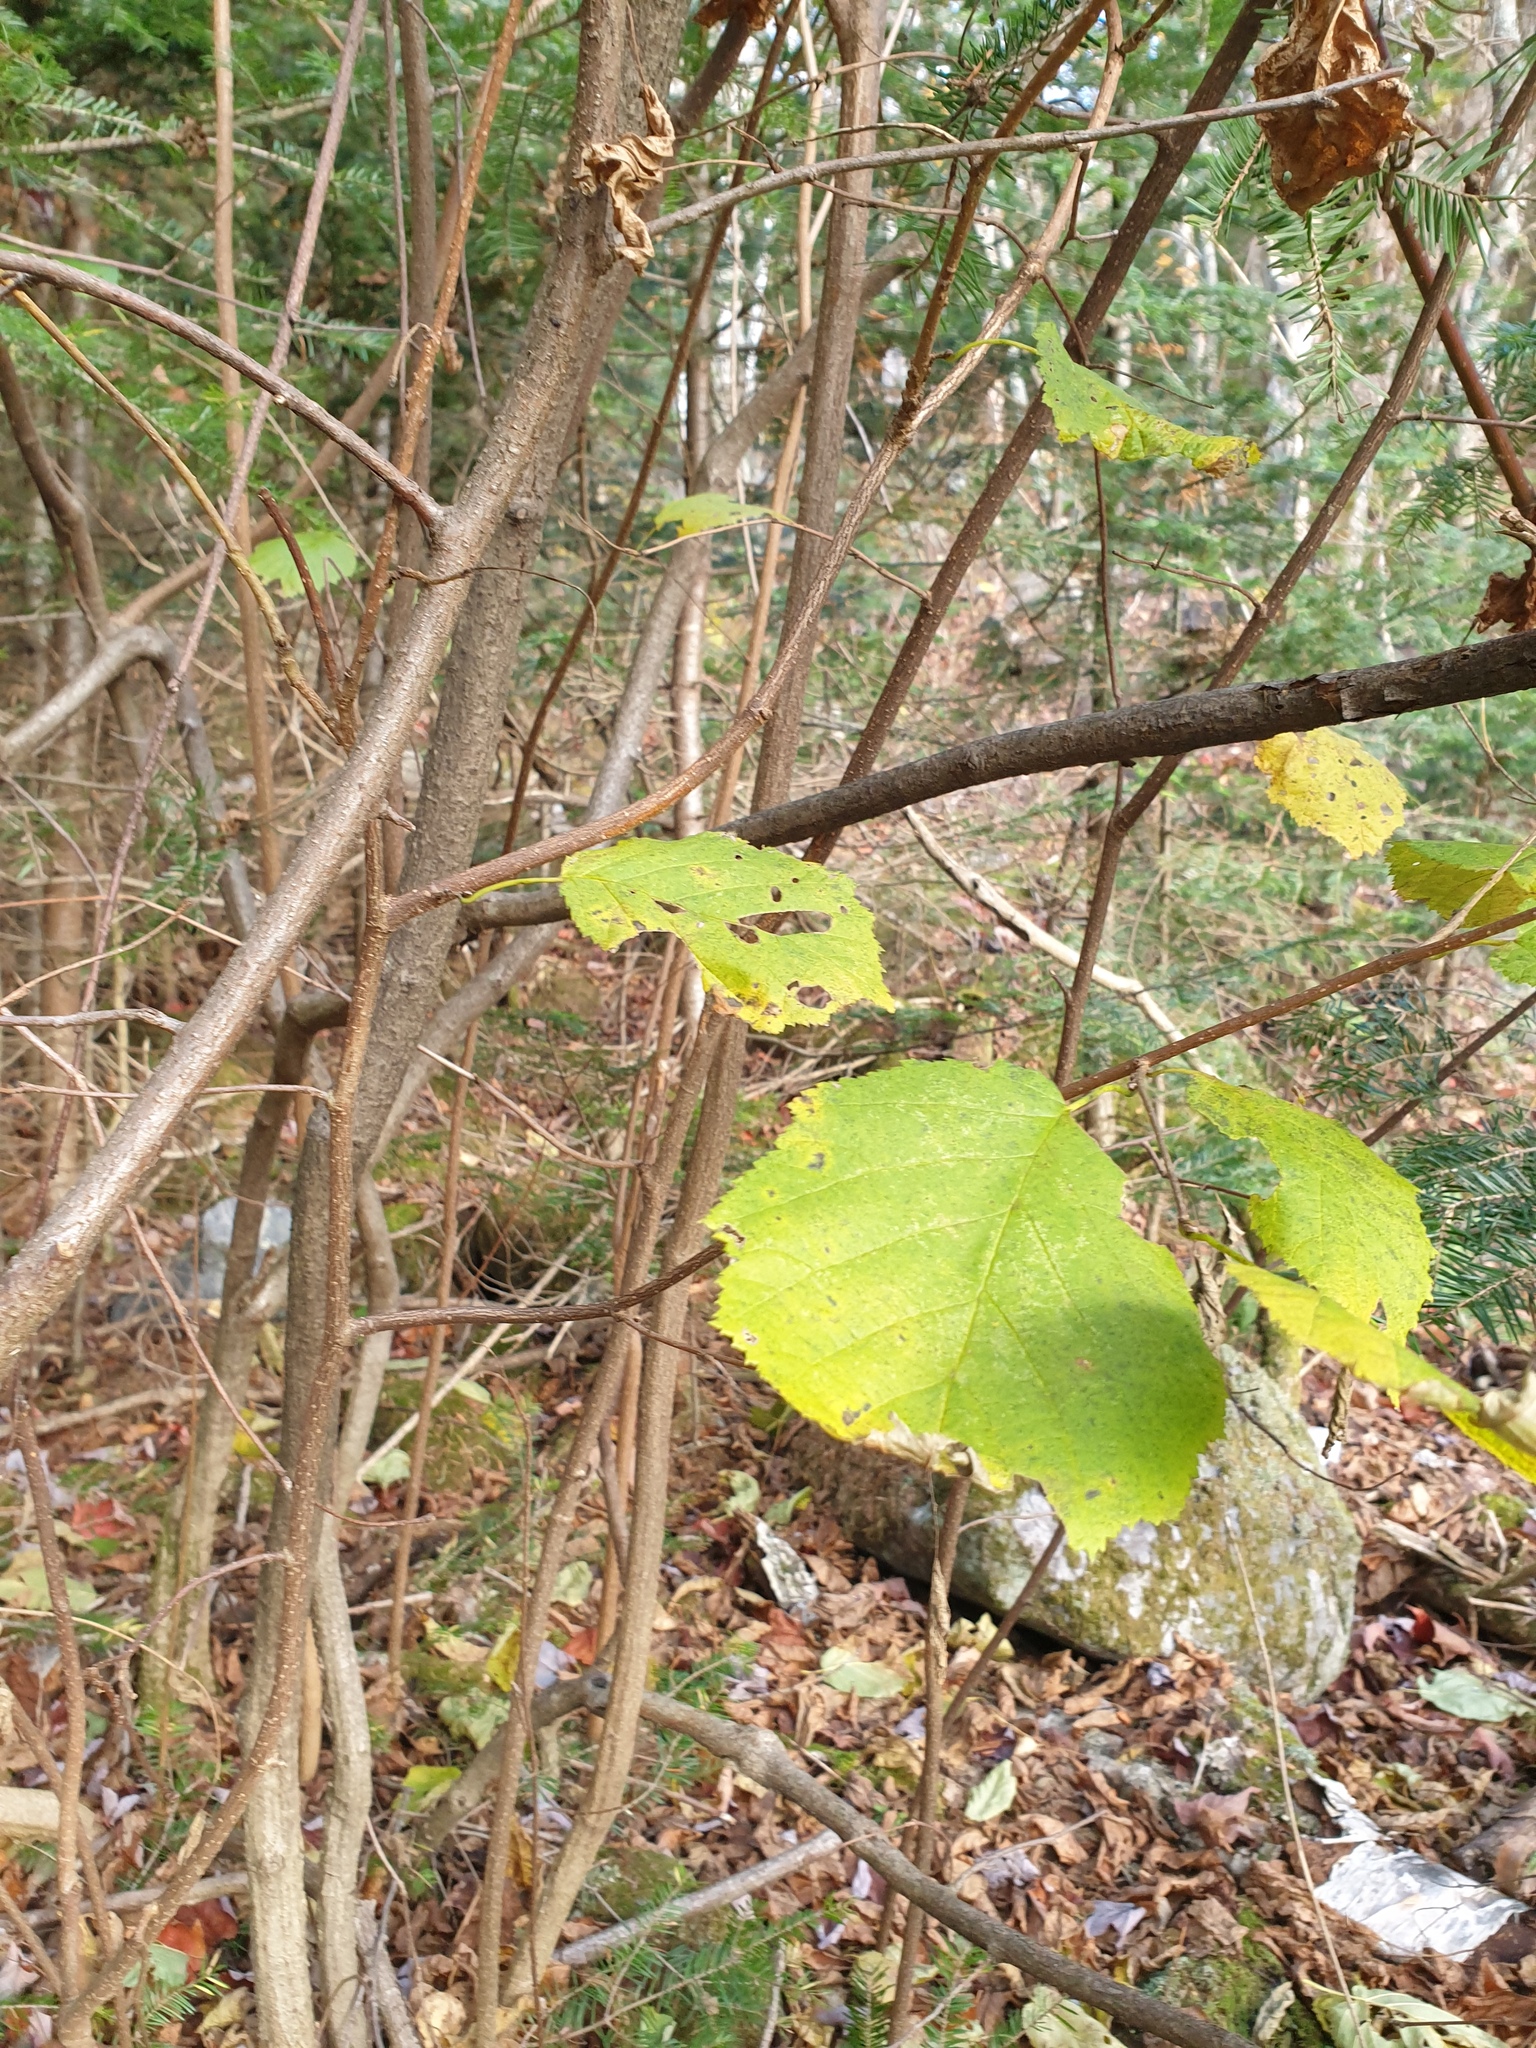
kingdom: Plantae
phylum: Tracheophyta
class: Magnoliopsida
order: Fagales
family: Betulaceae
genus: Corylus
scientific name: Corylus cornuta
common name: Beaked hazel
